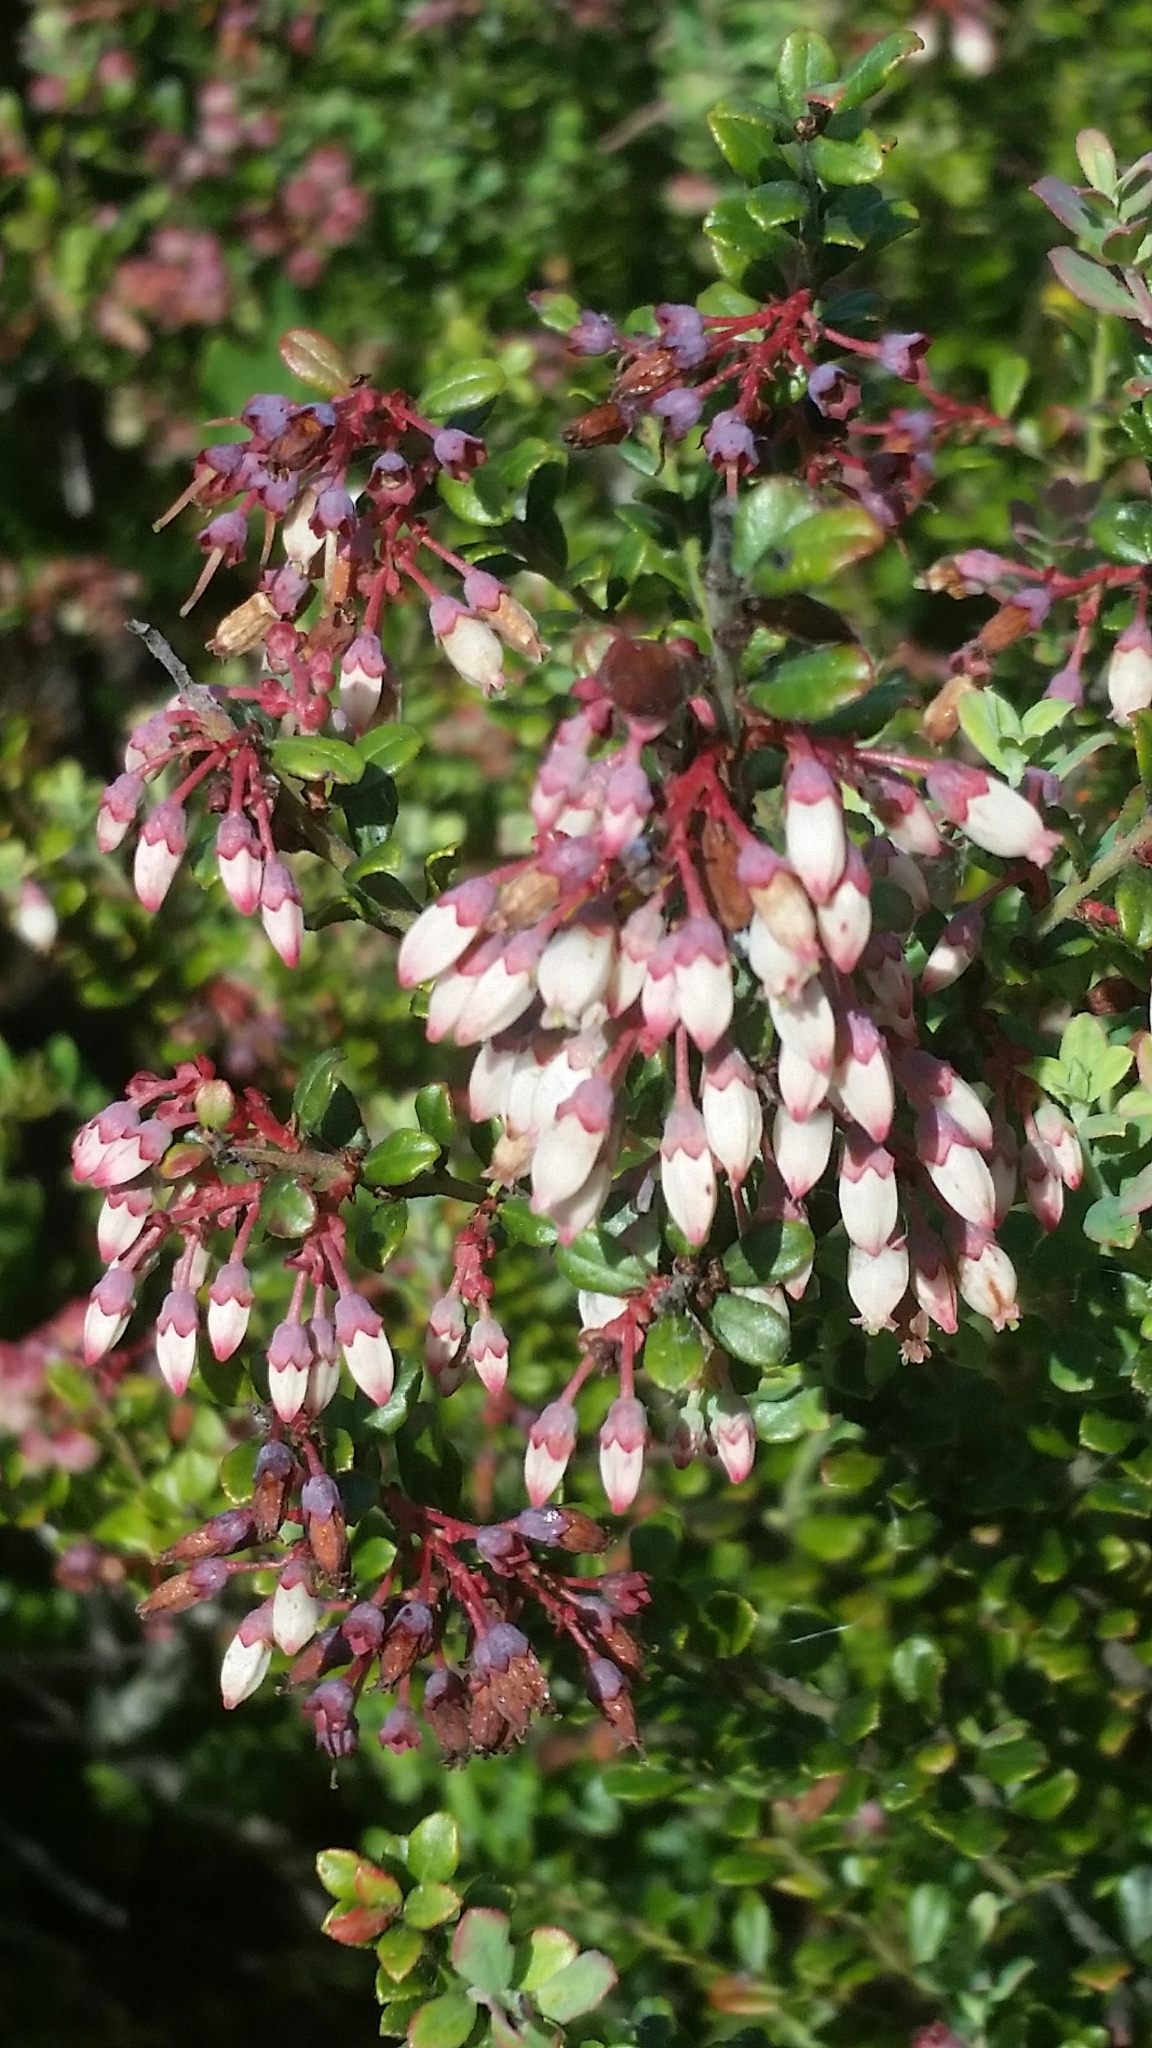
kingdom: Plantae
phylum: Tracheophyta
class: Magnoliopsida
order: Ericales
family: Ericaceae
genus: Vaccinium
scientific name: Vaccinium darrowii
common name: Darrow's blueberry
